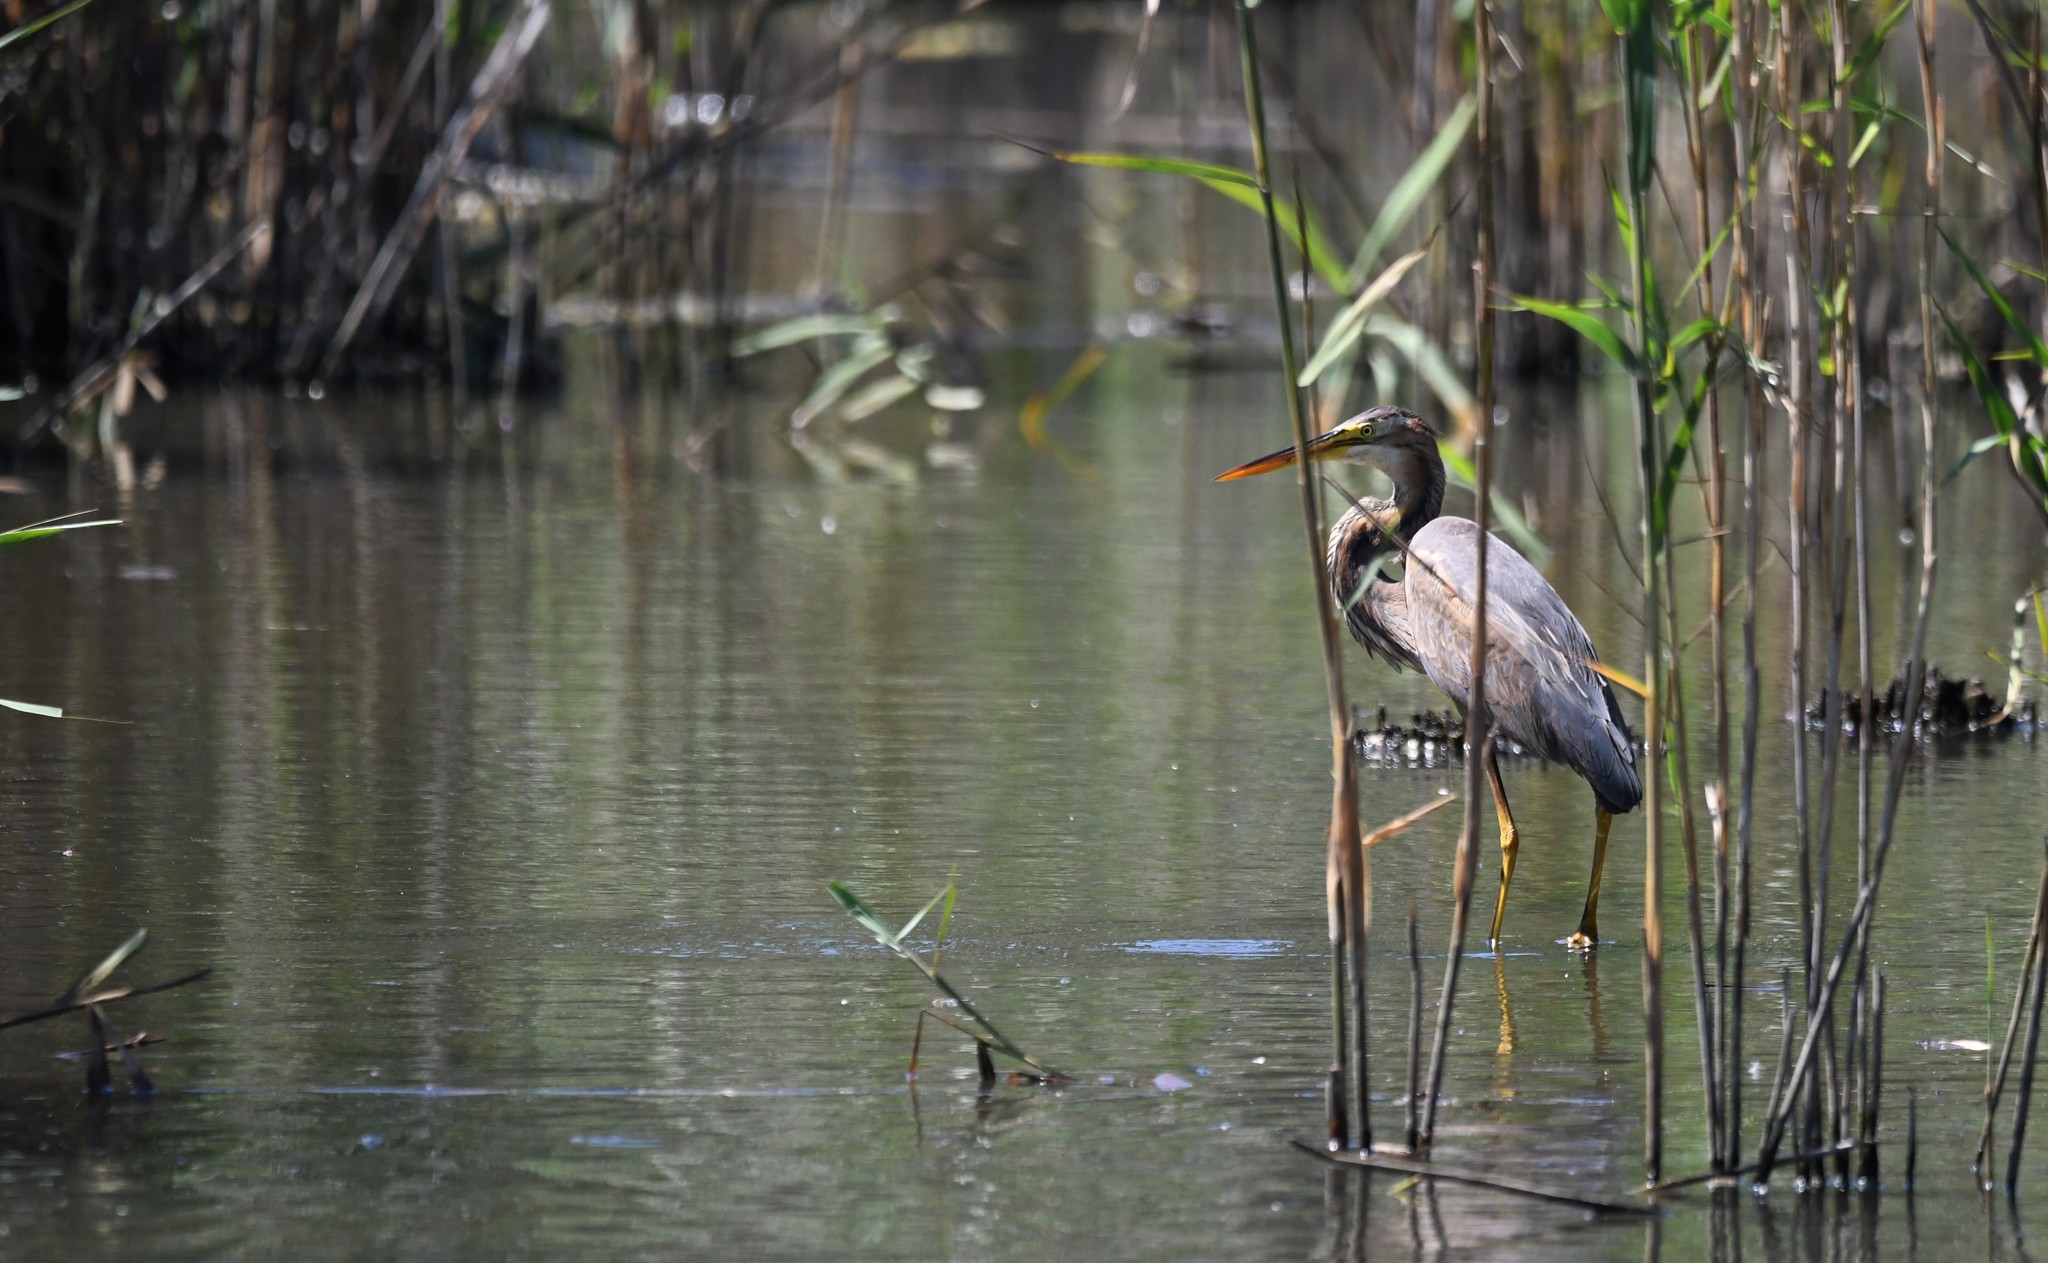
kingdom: Animalia
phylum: Chordata
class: Aves
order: Pelecaniformes
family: Ardeidae
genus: Ardea
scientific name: Ardea purpurea
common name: Purple heron
